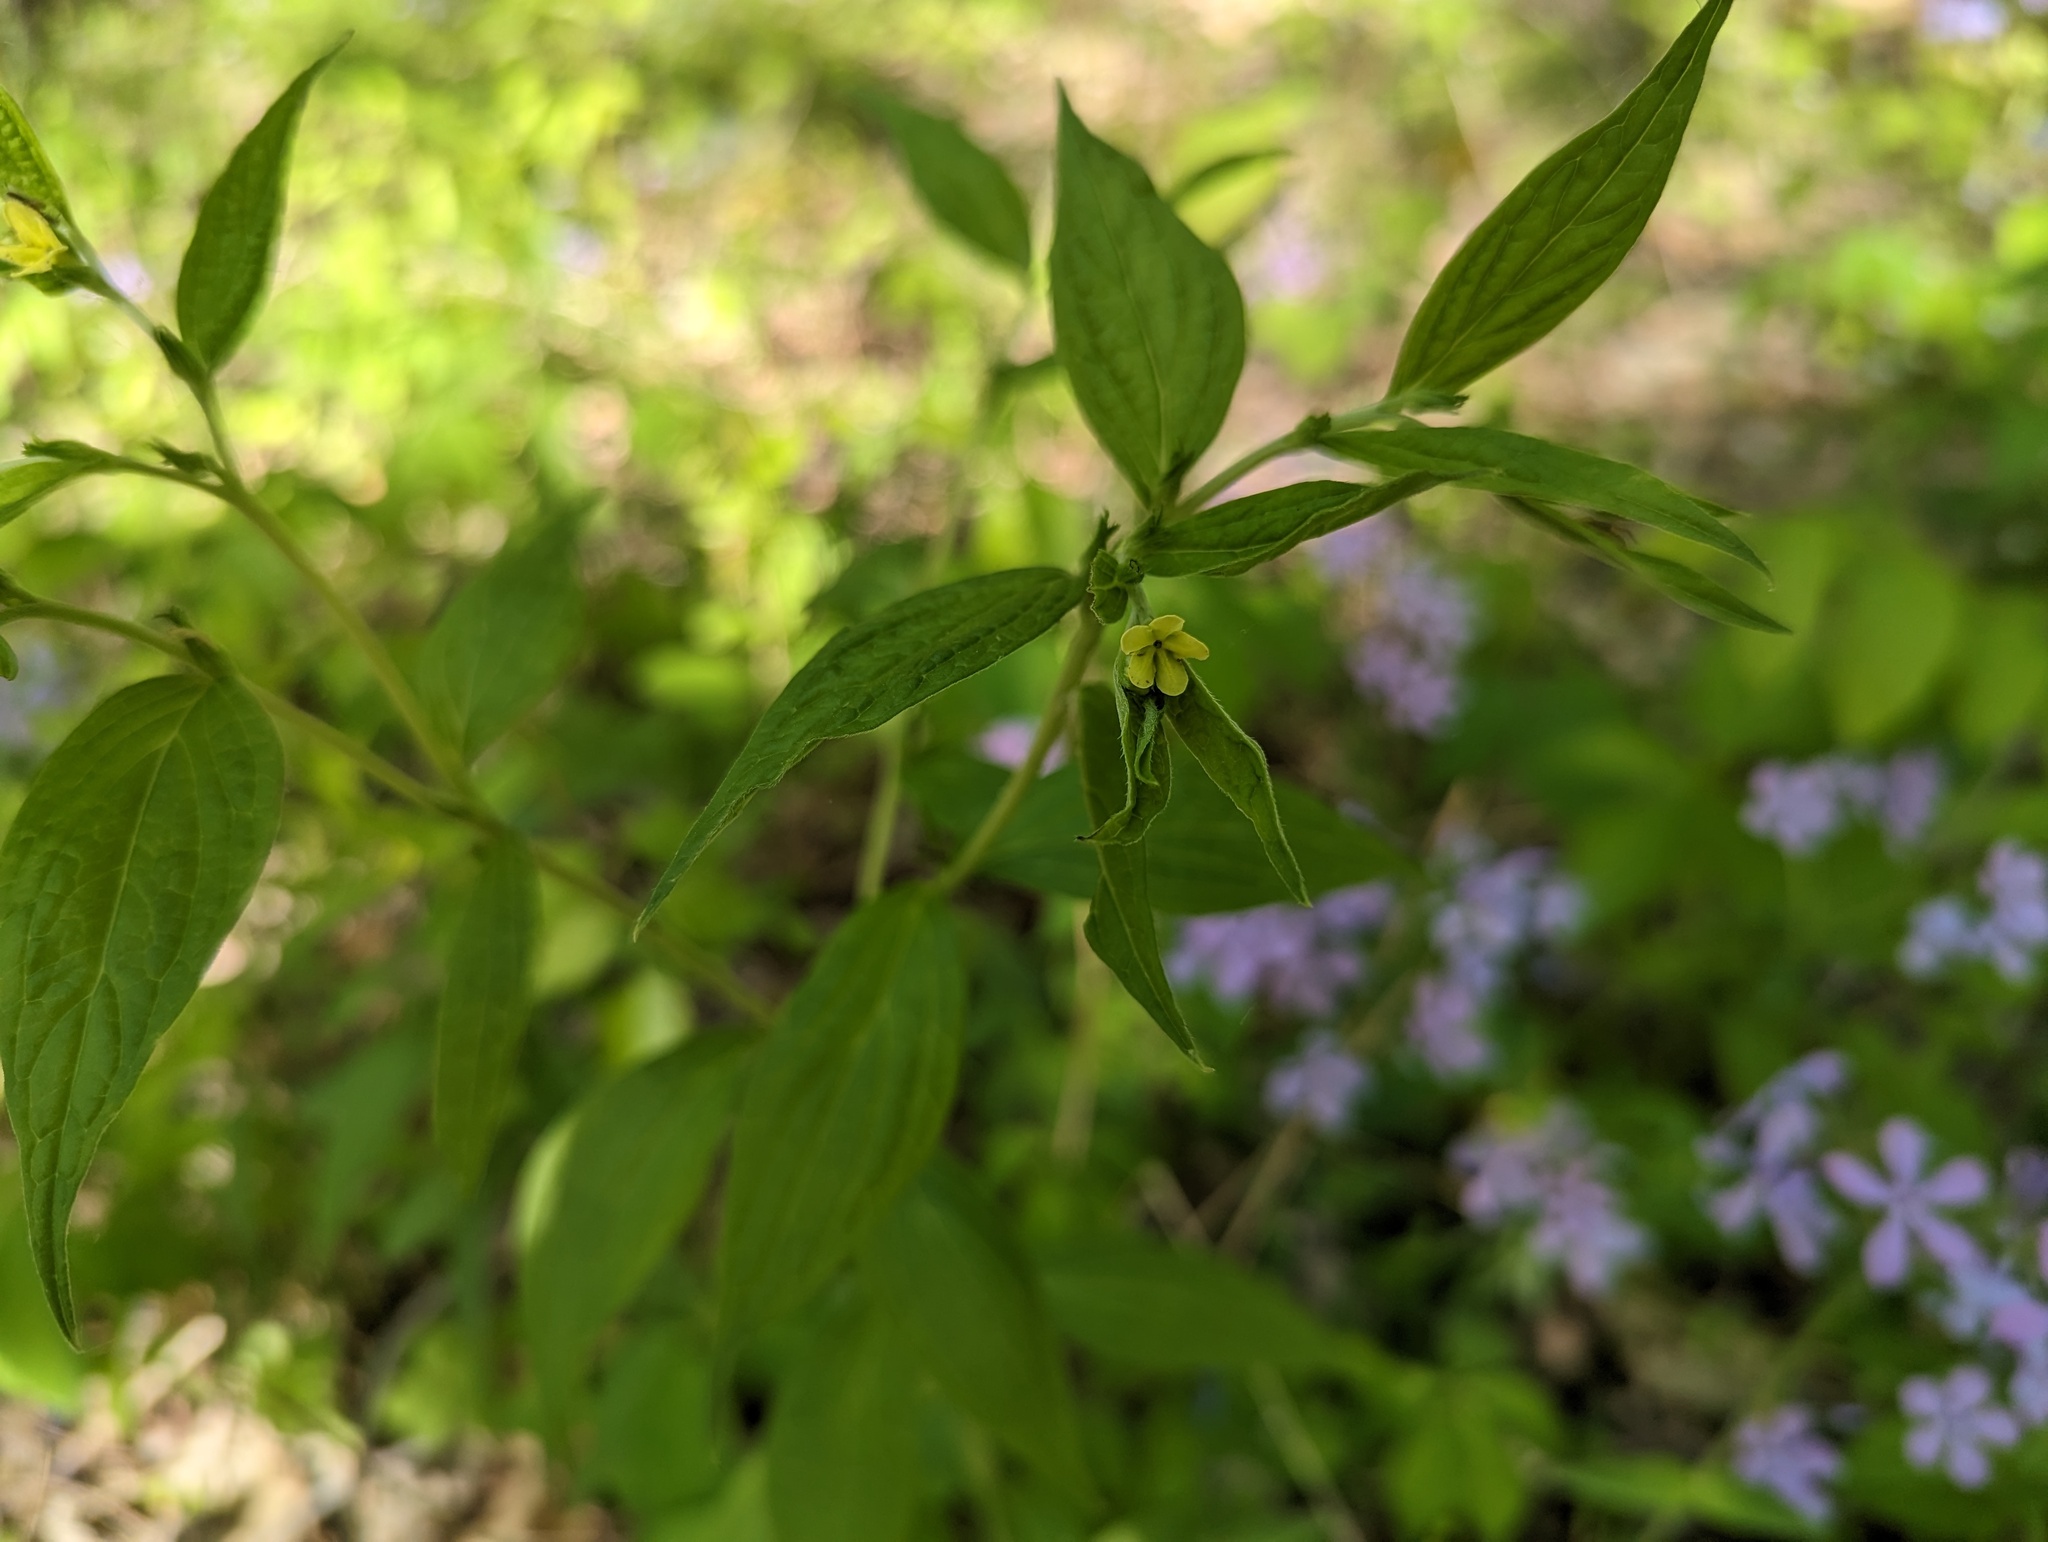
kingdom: Plantae
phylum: Tracheophyta
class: Magnoliopsida
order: Boraginales
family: Boraginaceae
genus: Lithospermum
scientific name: Lithospermum latifolium
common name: American gromwell
